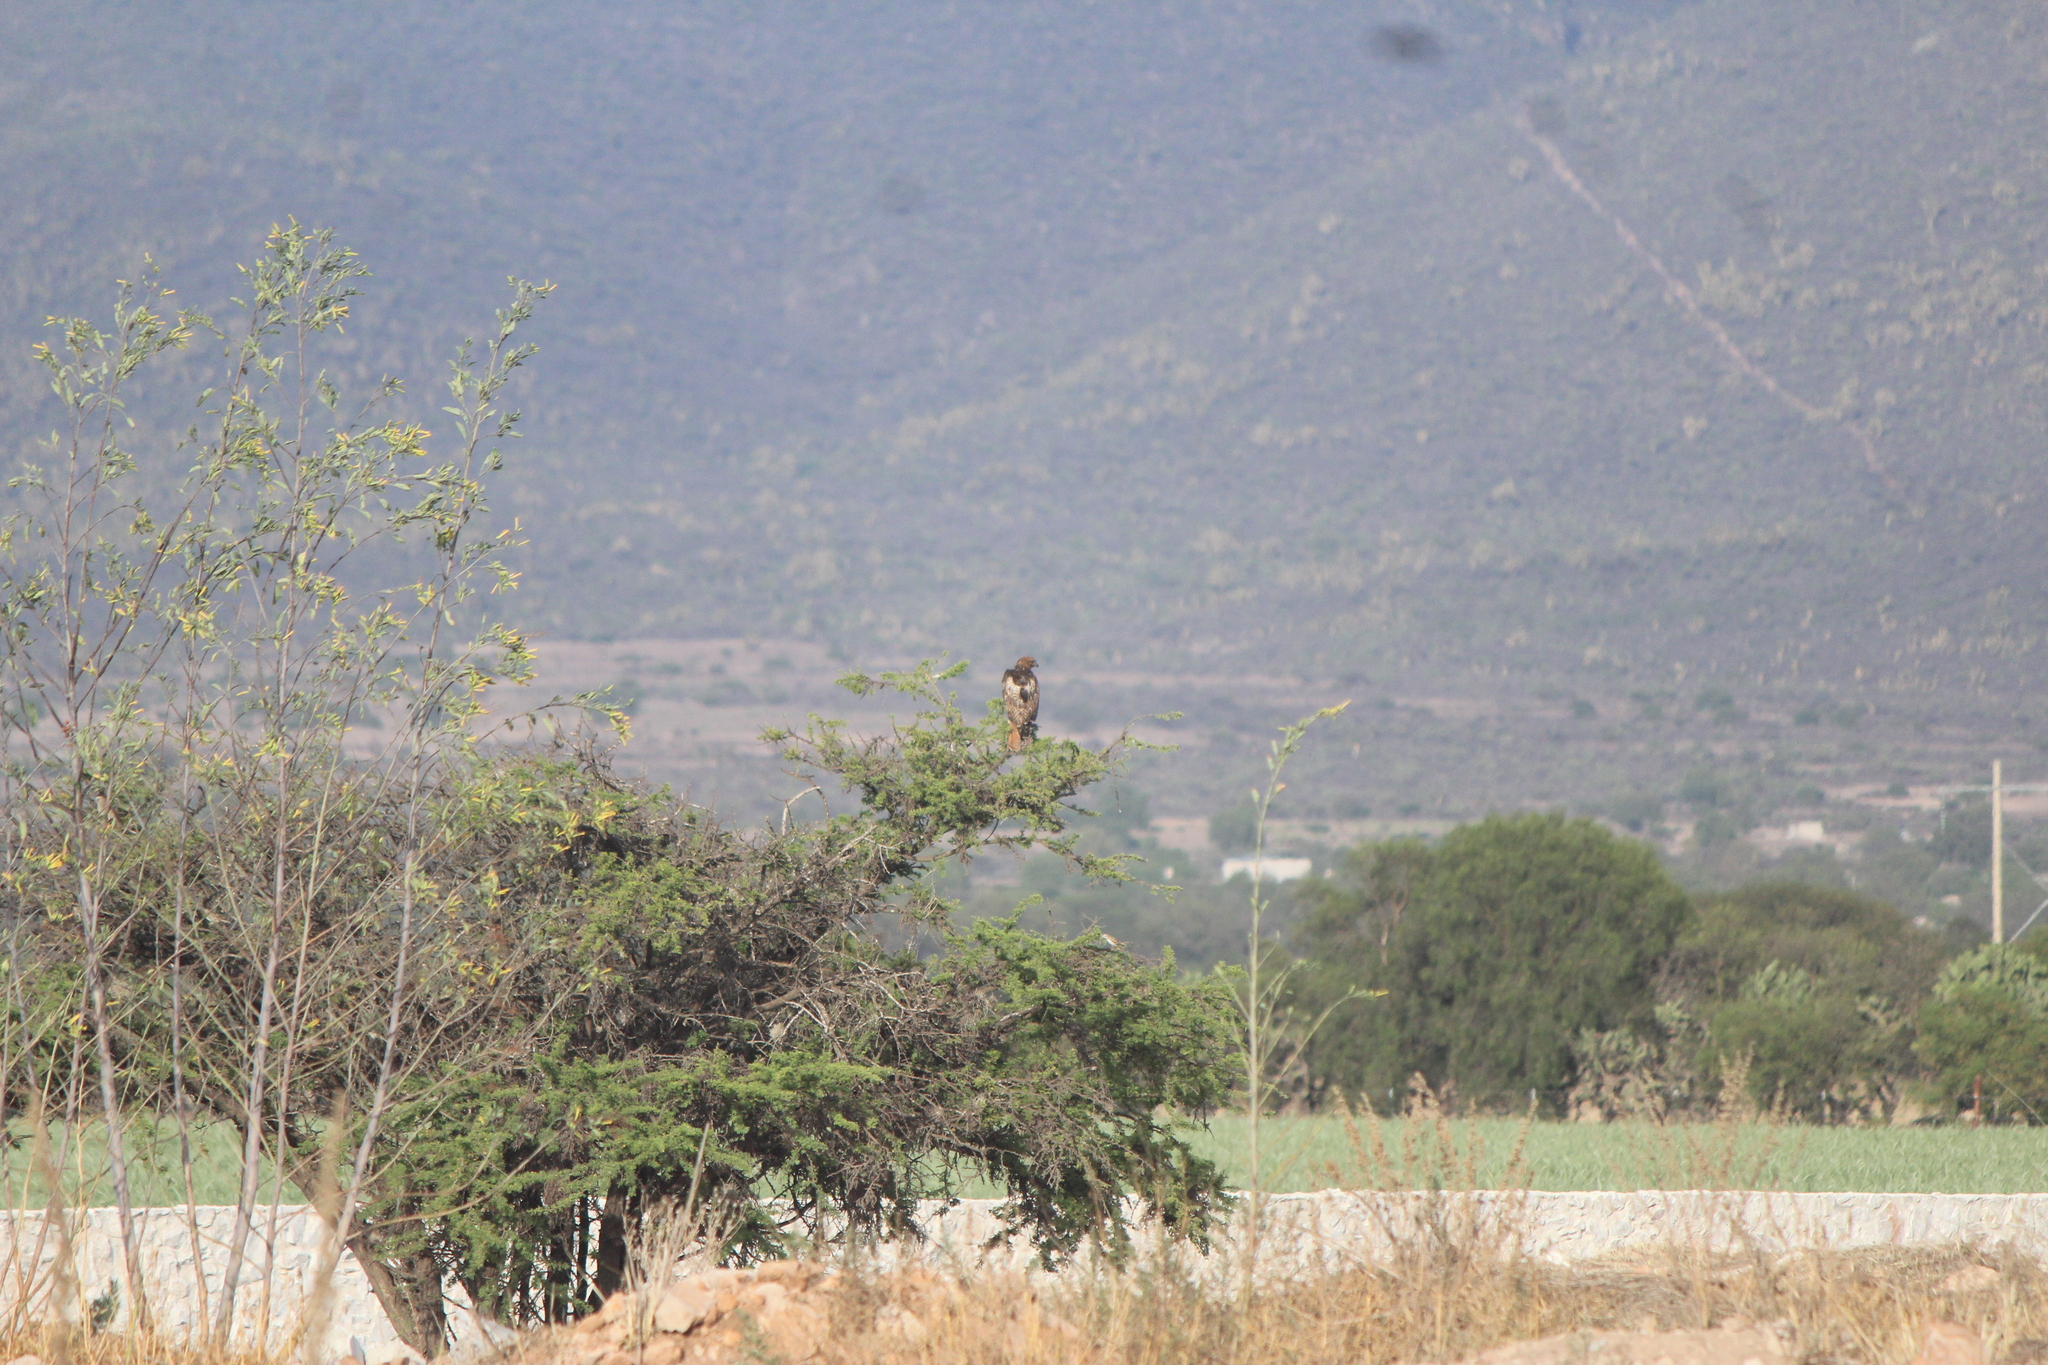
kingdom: Animalia
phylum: Chordata
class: Aves
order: Accipitriformes
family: Accipitridae
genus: Buteo
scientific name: Buteo jamaicensis
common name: Red-tailed hawk
